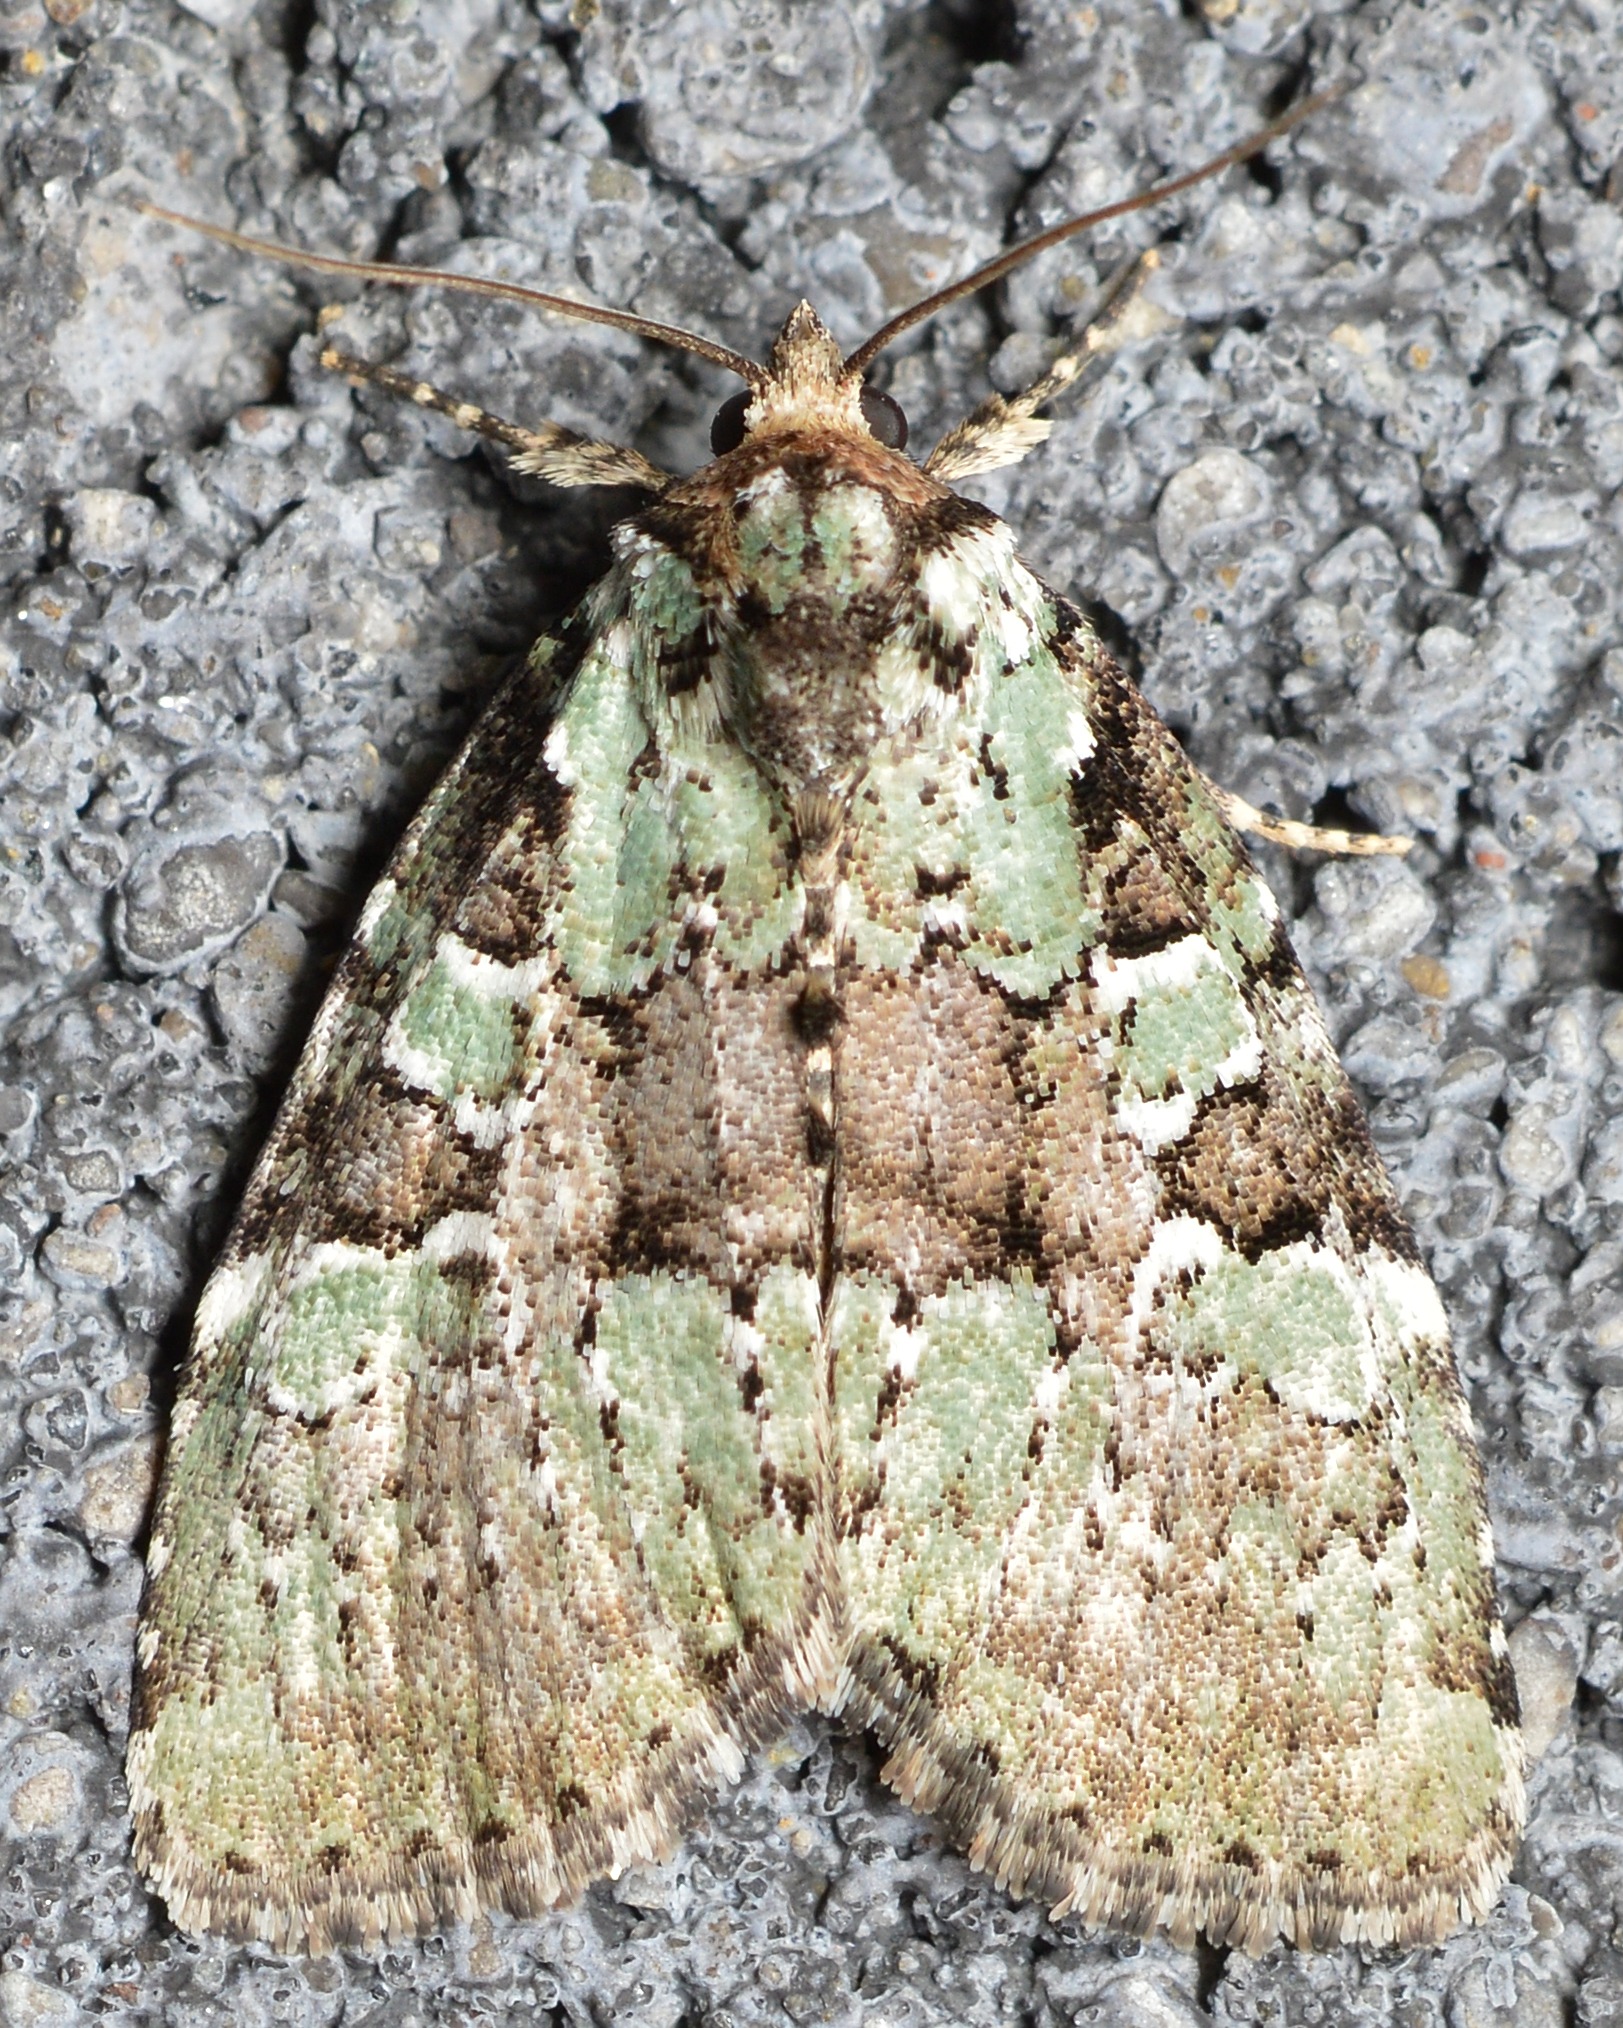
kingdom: Animalia
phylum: Arthropoda
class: Insecta
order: Lepidoptera
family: Noctuidae
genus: Leuconycta
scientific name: Leuconycta lepidula
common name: Marbled-green leuconycta moth
